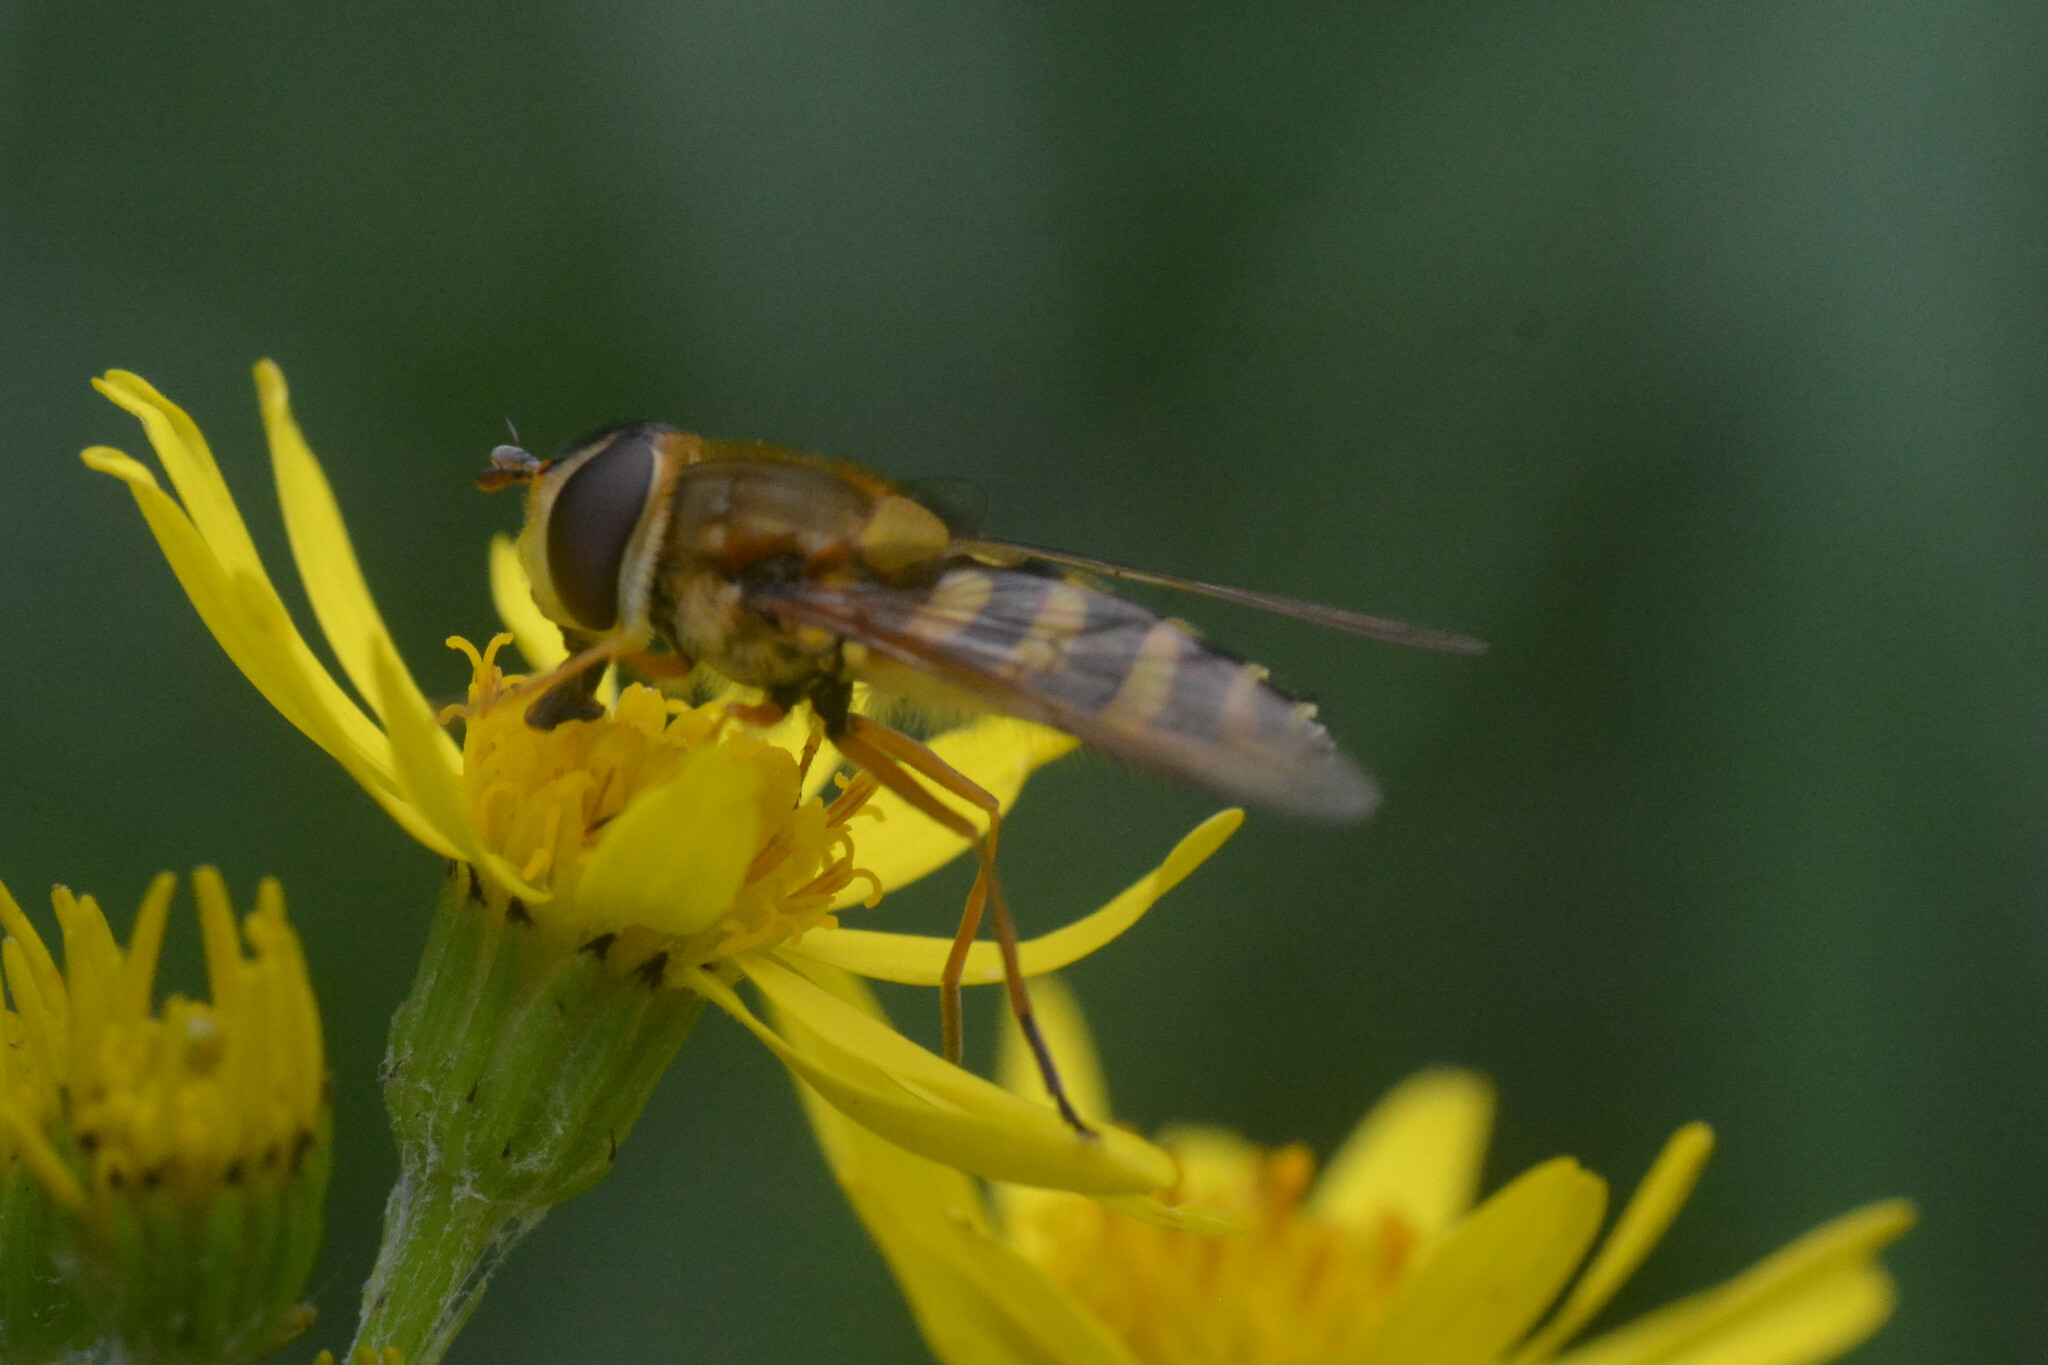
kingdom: Animalia
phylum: Arthropoda
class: Insecta
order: Diptera
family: Syrphidae
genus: Syrphus
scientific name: Syrphus ribesii
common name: Common flower fly
